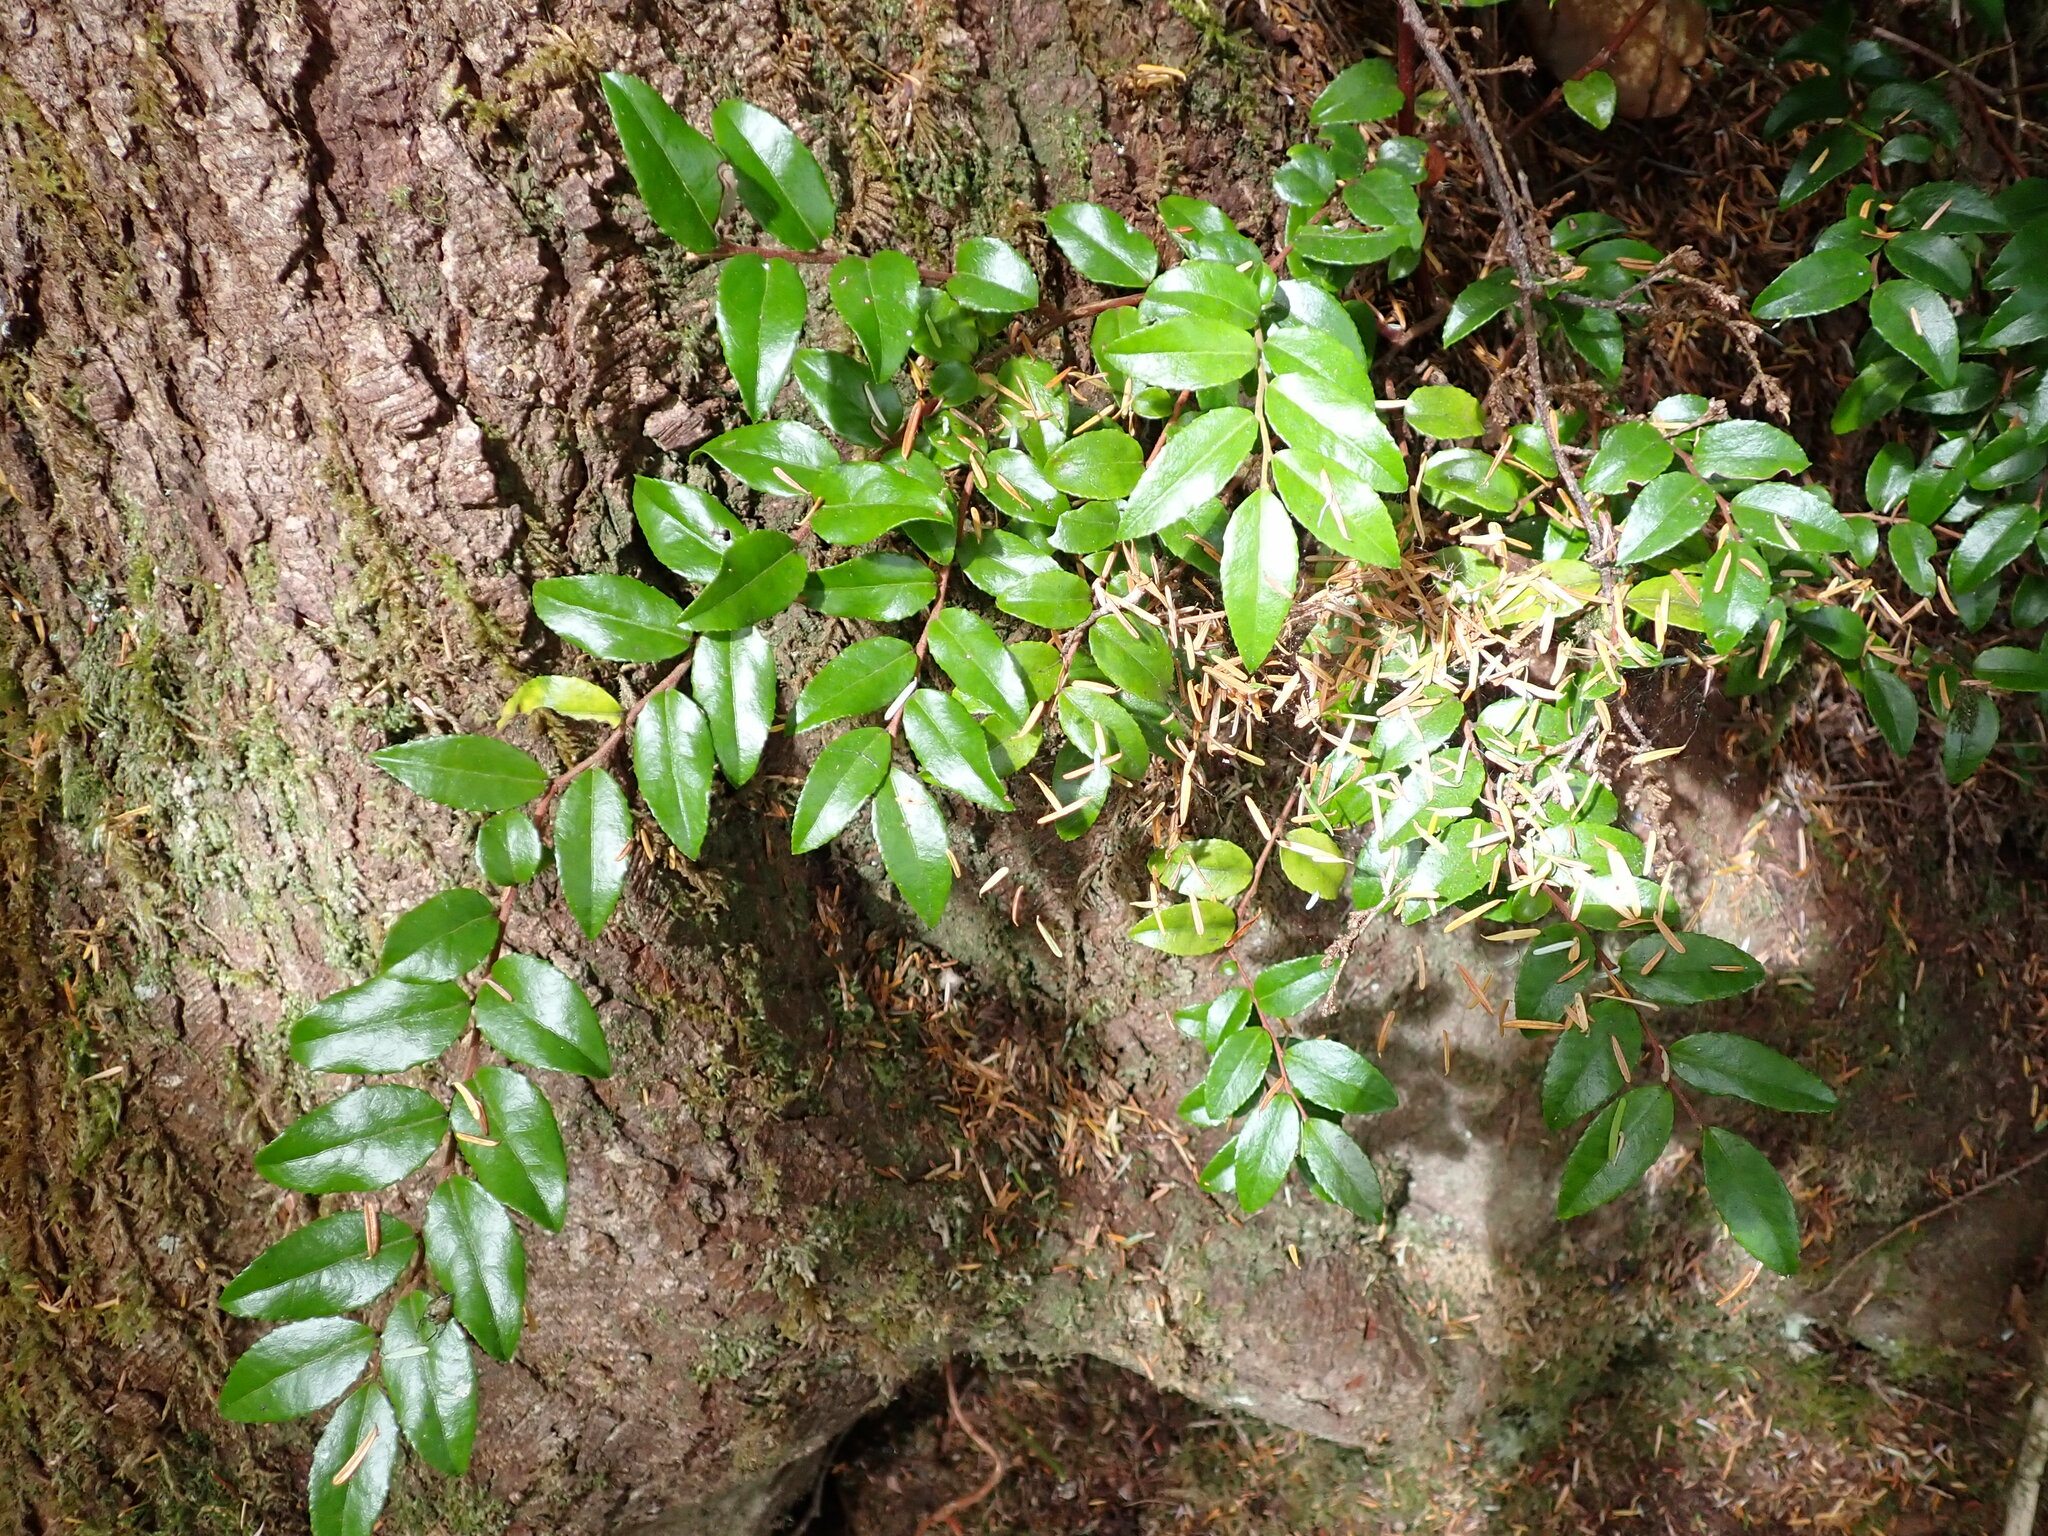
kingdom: Plantae
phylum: Tracheophyta
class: Magnoliopsida
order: Ericales
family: Ericaceae
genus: Vaccinium
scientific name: Vaccinium ovatum
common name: California-huckleberry
